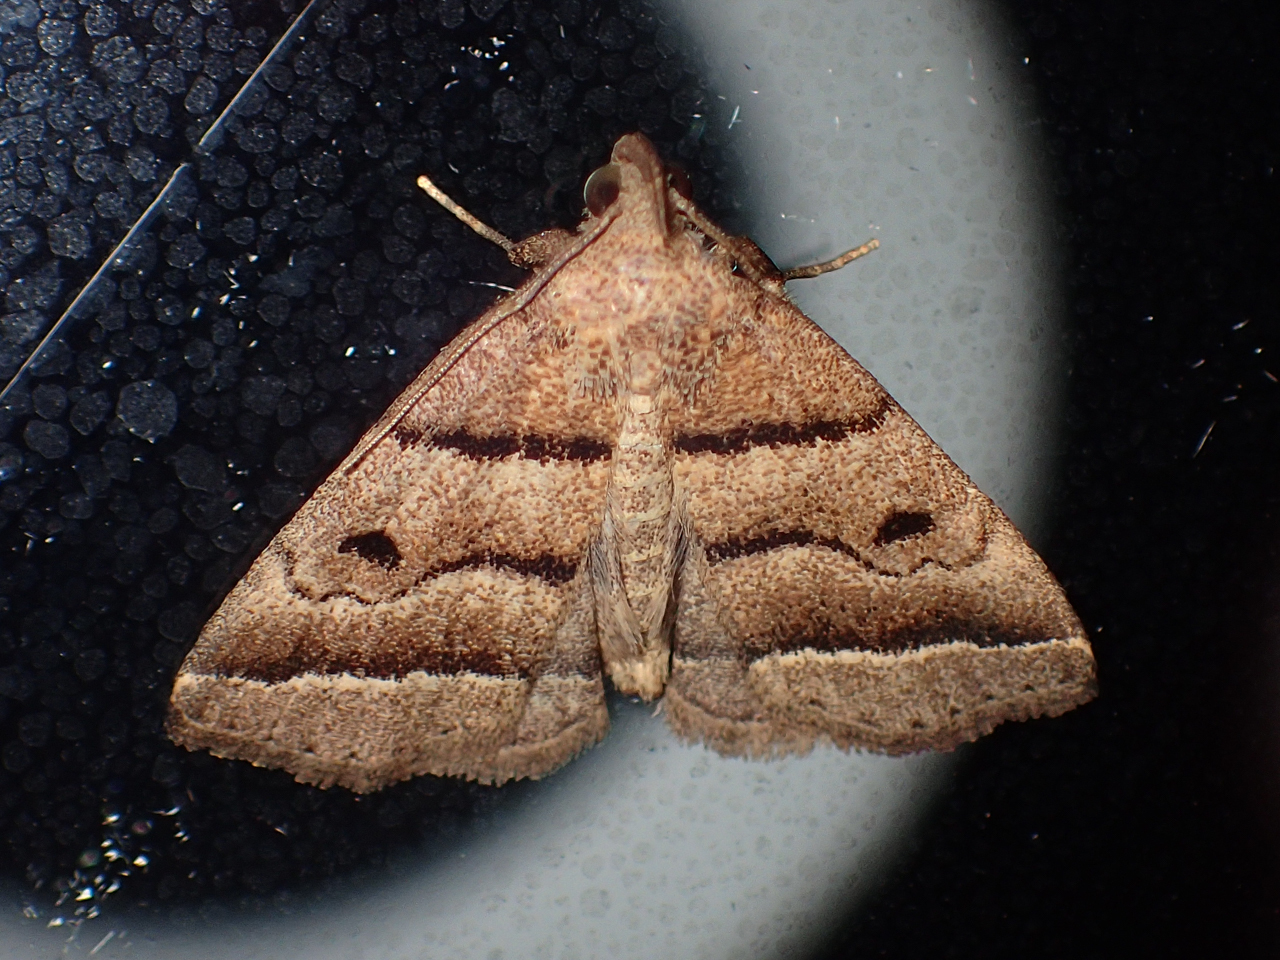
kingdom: Animalia
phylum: Arthropoda
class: Insecta
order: Lepidoptera
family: Erebidae
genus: Zanclognatha
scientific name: Zanclognatha atrilineella
